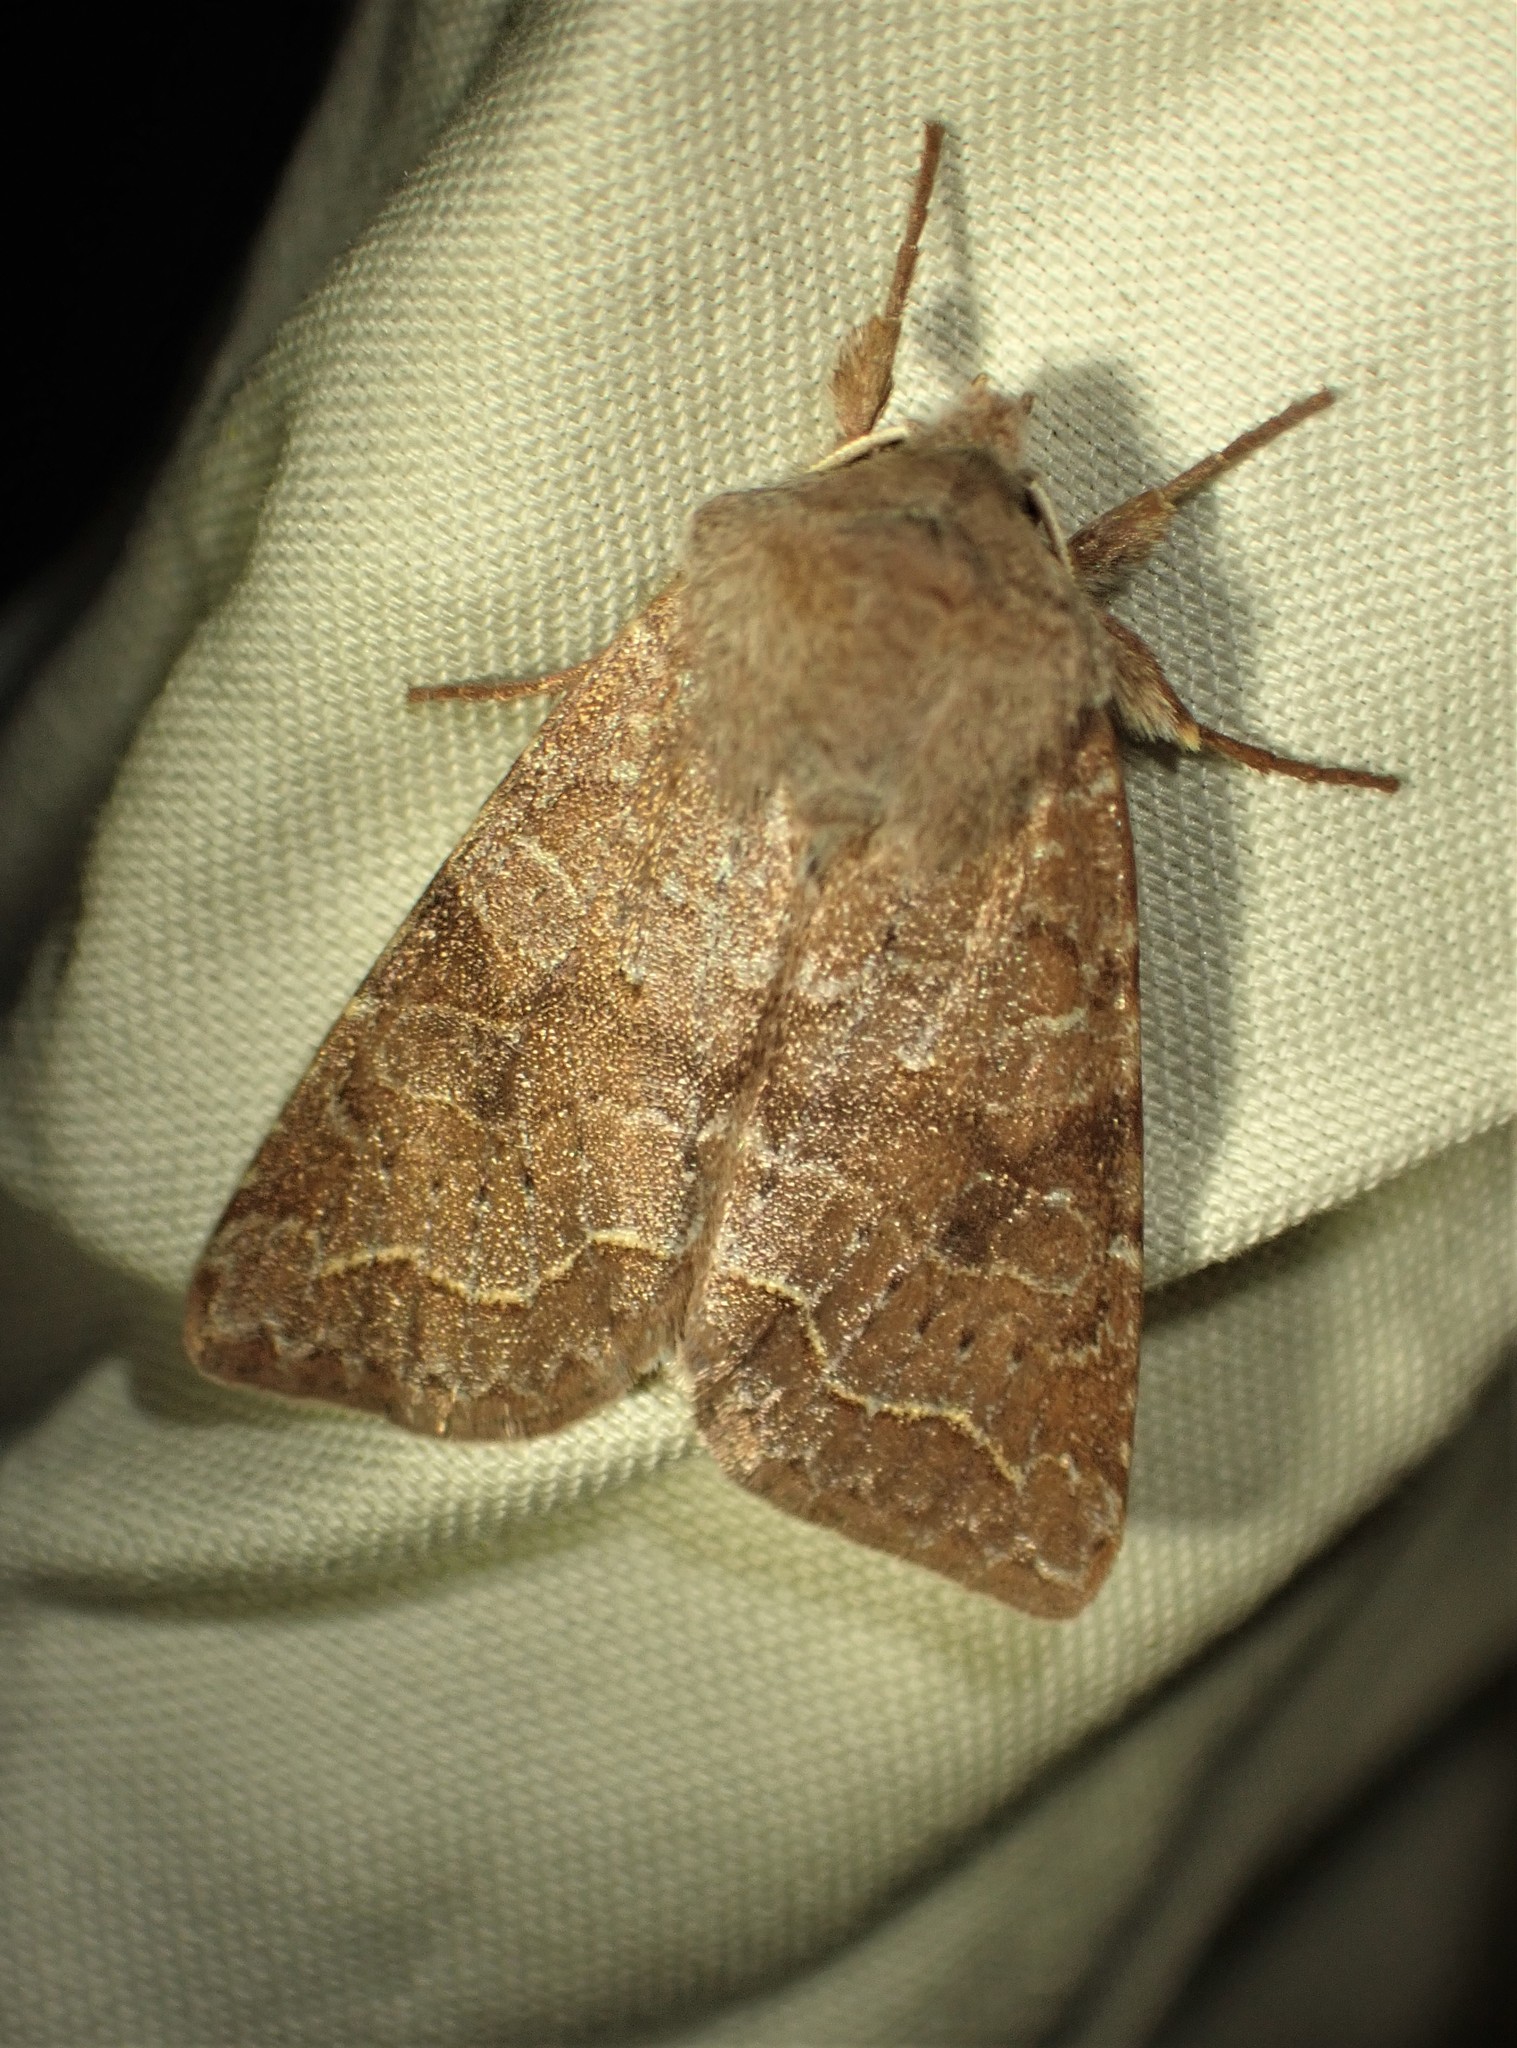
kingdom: Animalia
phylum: Arthropoda
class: Insecta
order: Lepidoptera
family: Noctuidae
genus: Orthosia
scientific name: Orthosia revicta
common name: Rusty whitesided caterpillar
